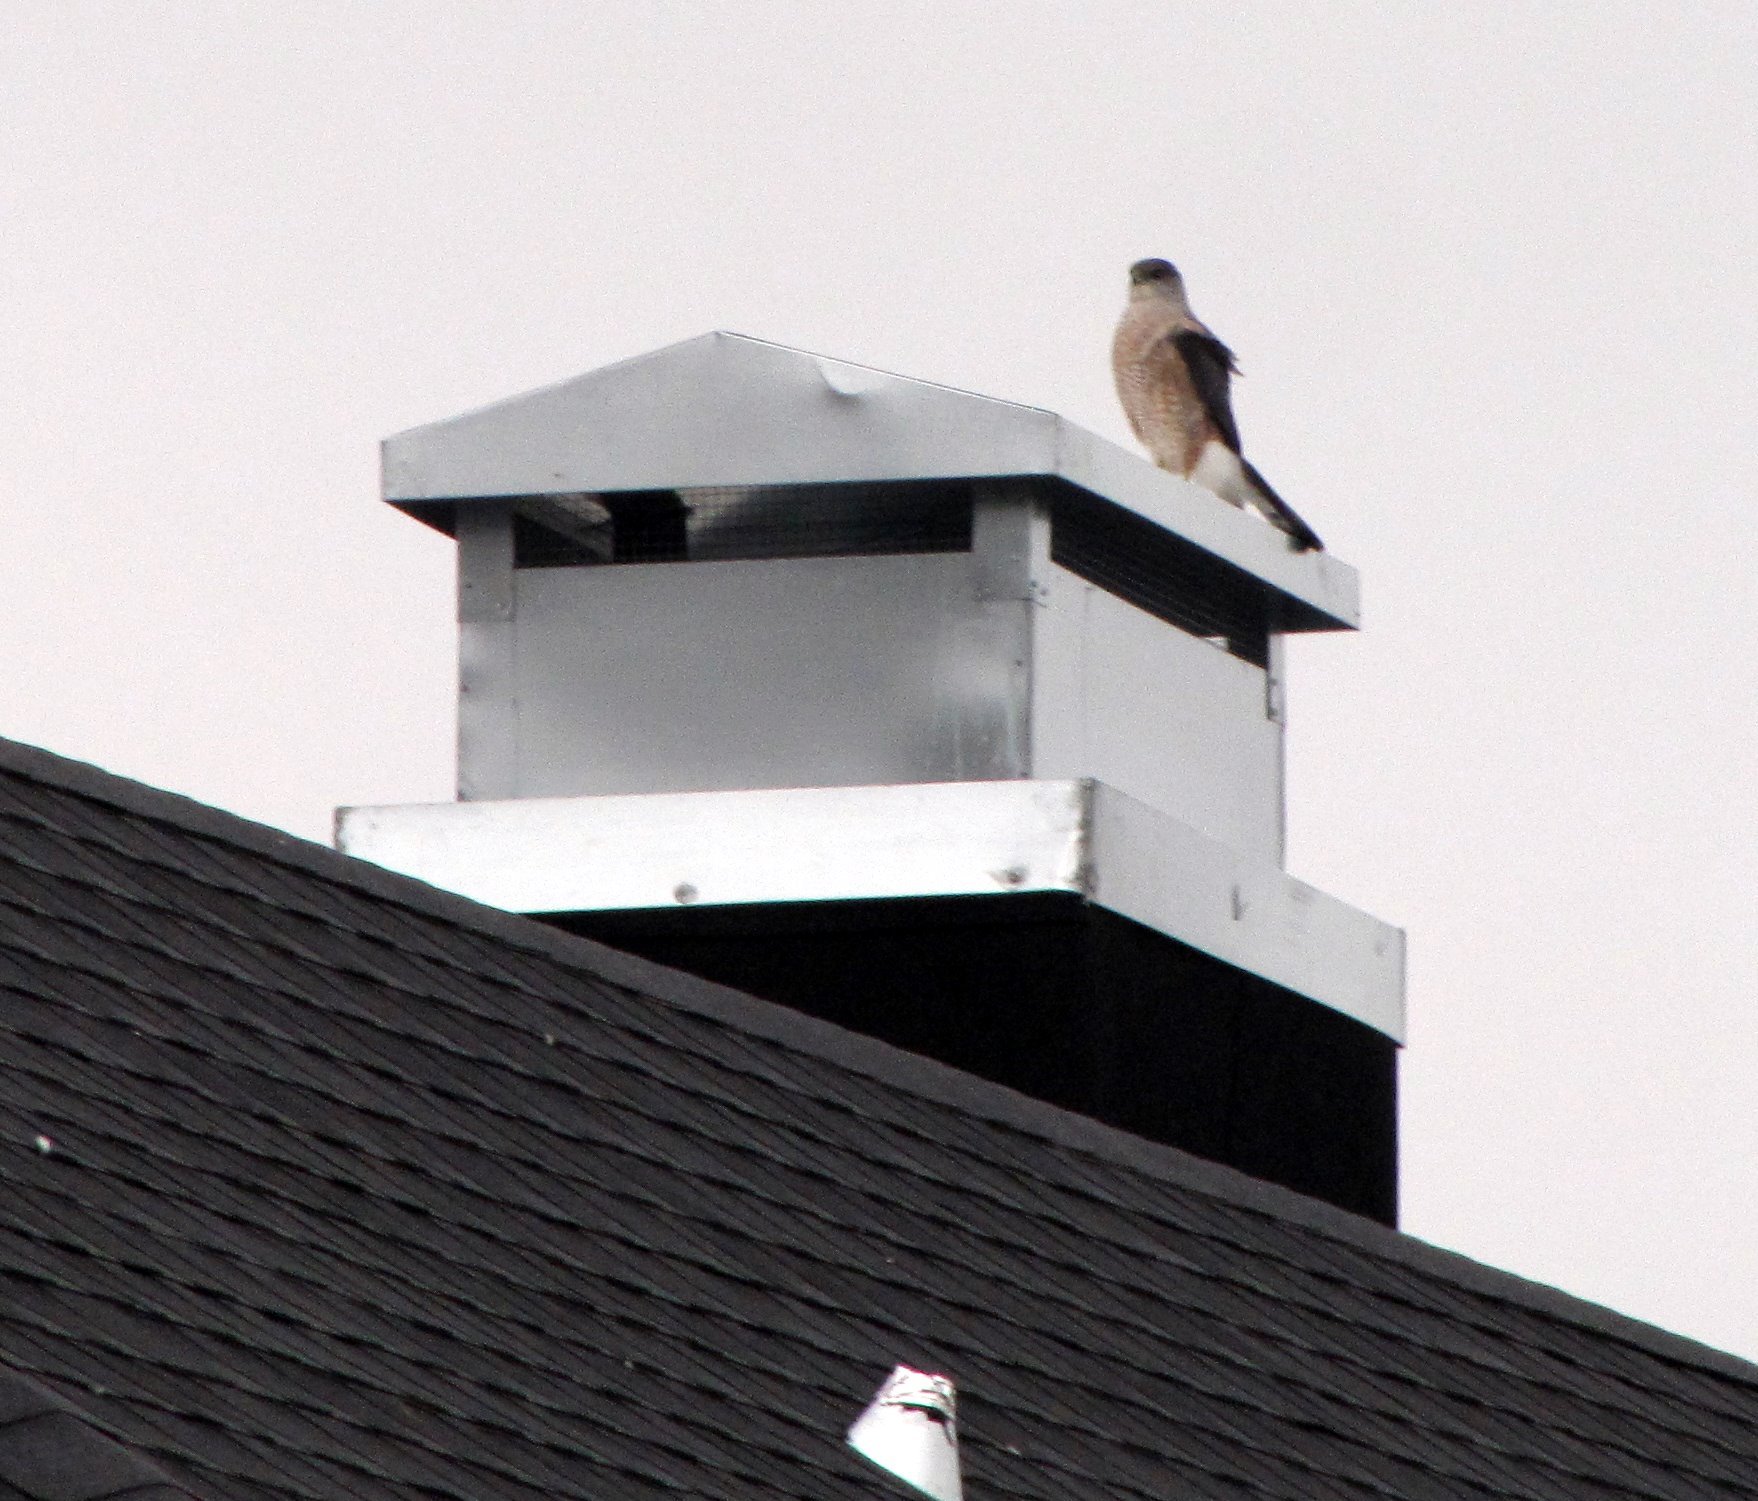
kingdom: Animalia
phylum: Chordata
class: Aves
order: Accipitriformes
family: Accipitridae
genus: Accipiter
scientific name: Accipiter cooperii
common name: Cooper's hawk
